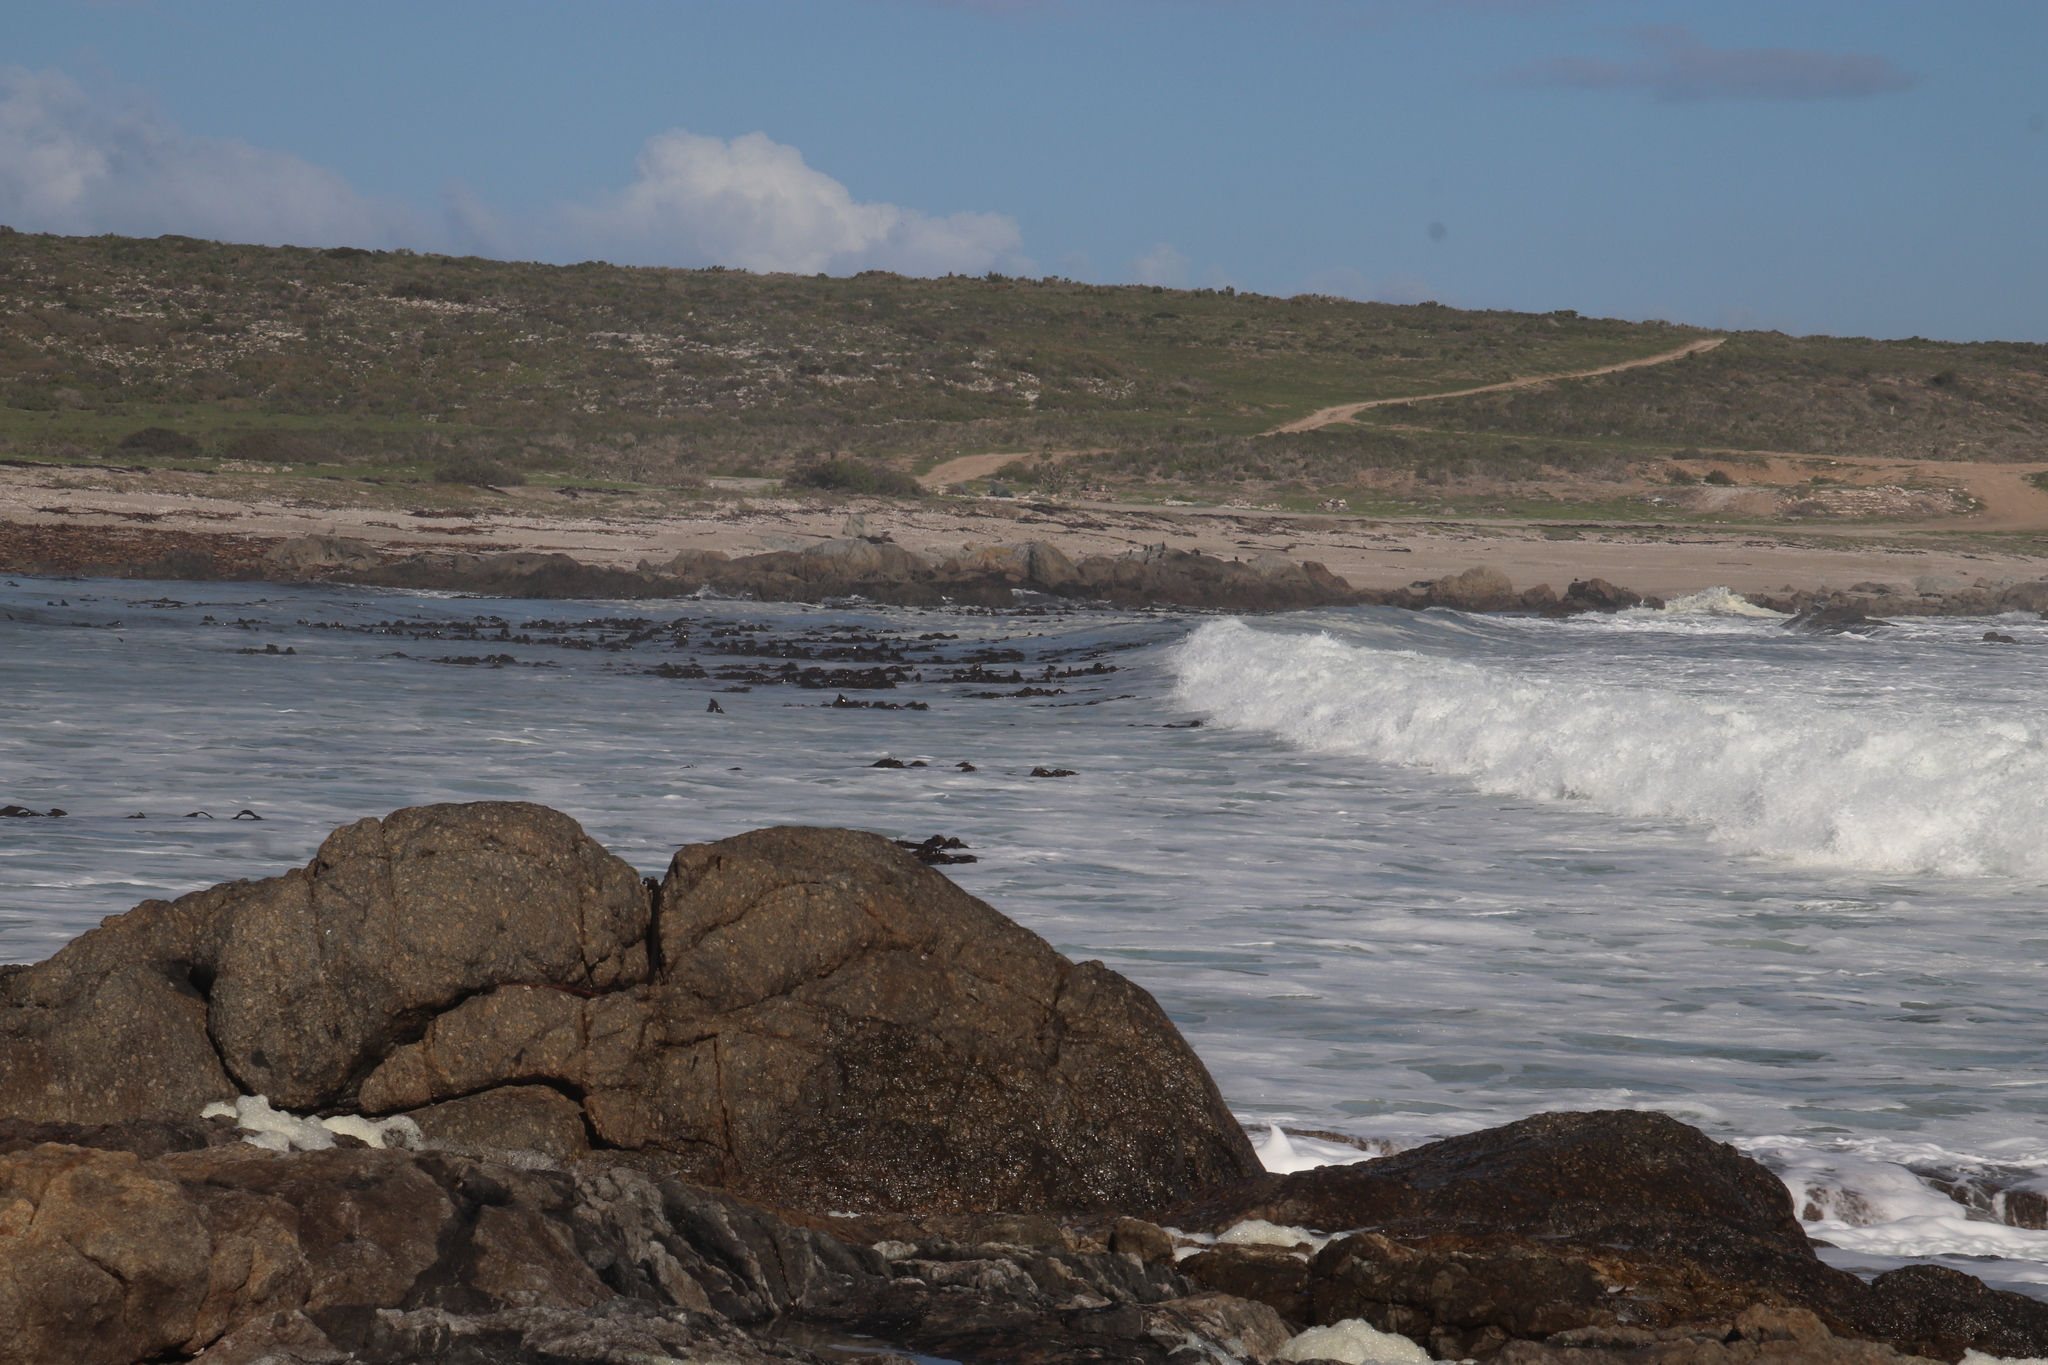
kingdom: Chromista
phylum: Ochrophyta
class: Phaeophyceae
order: Laminariales
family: Lessoniaceae
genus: Ecklonia
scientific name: Ecklonia
